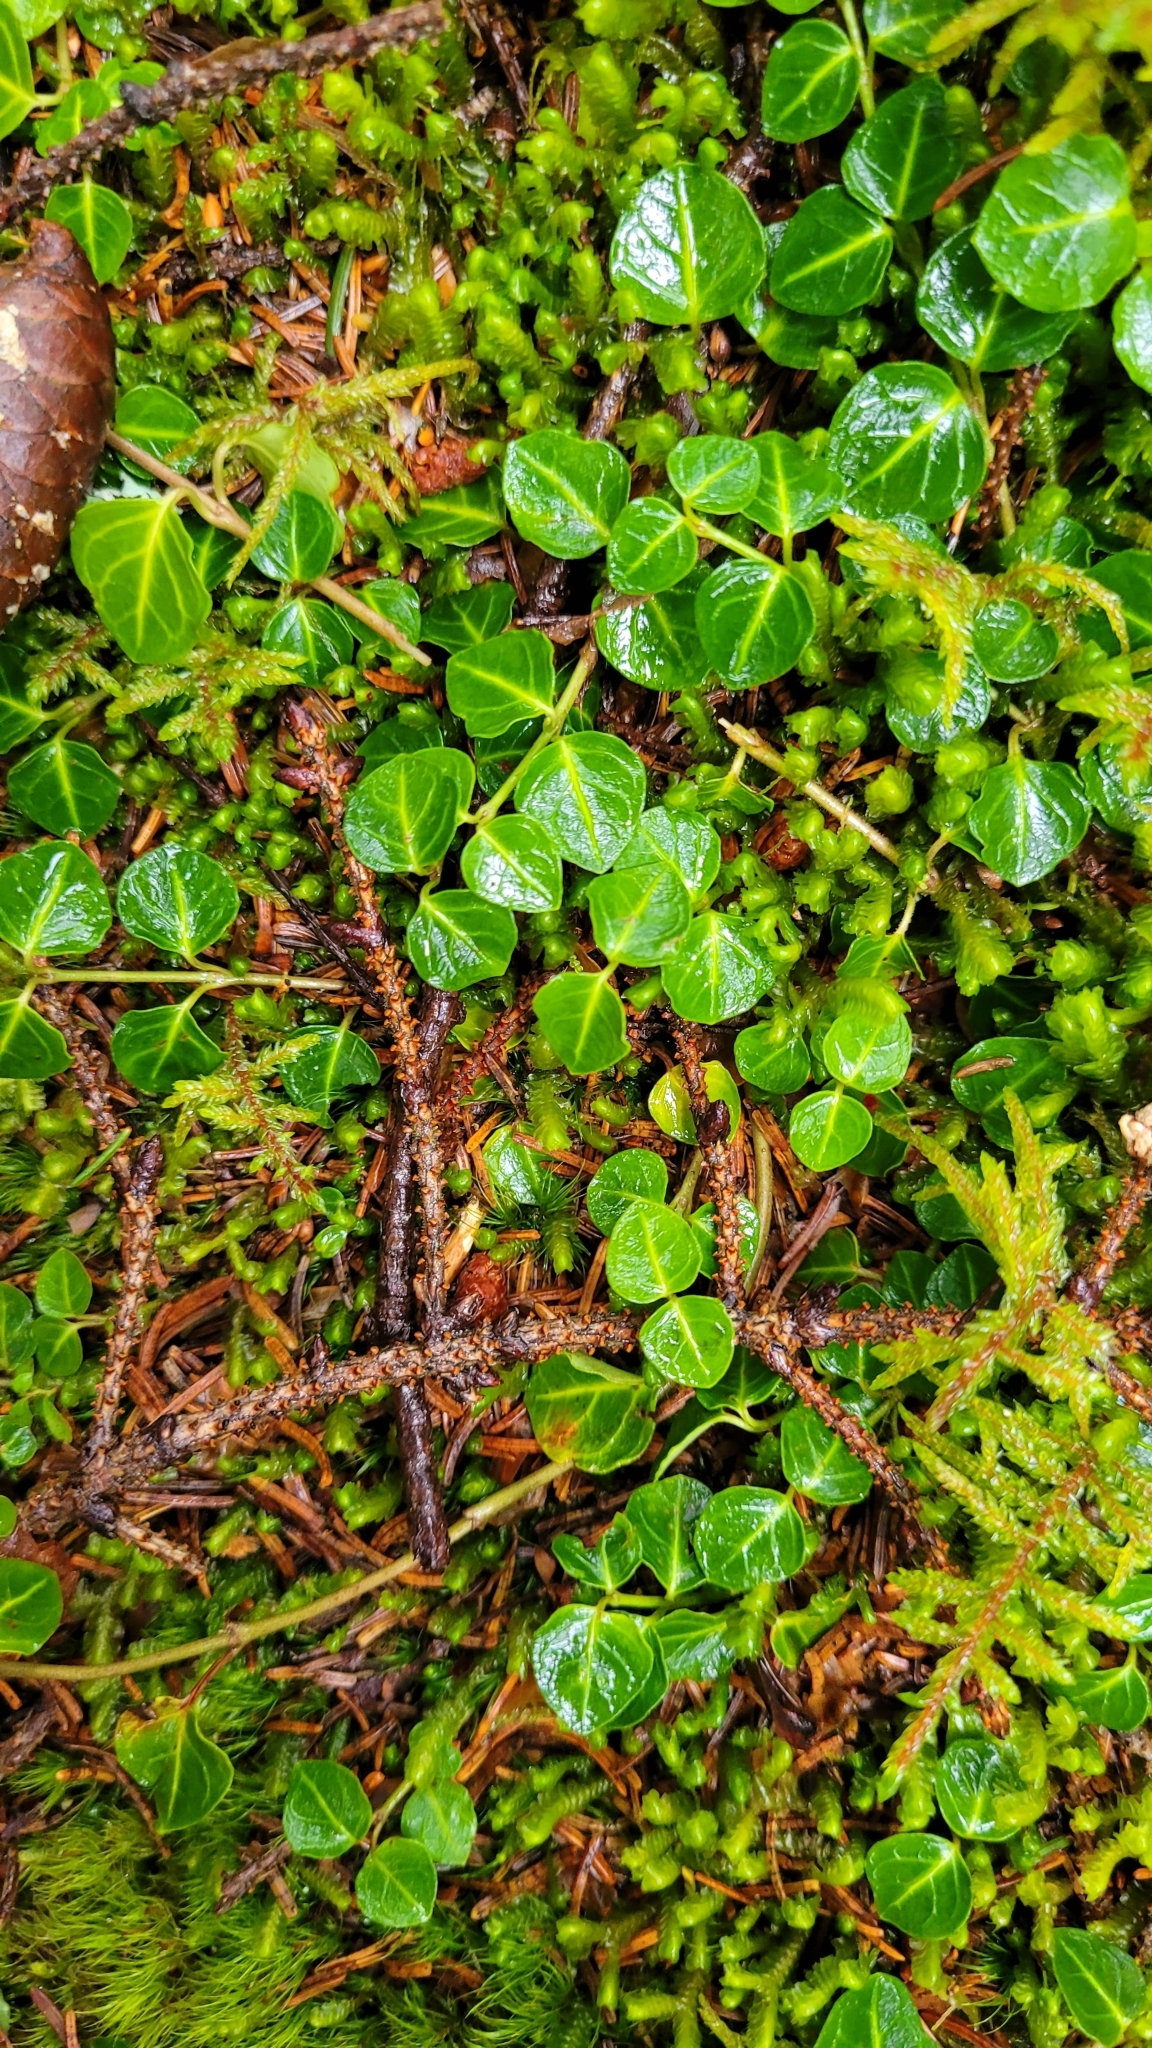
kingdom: Plantae
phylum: Tracheophyta
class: Magnoliopsida
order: Gentianales
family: Rubiaceae
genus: Mitchella
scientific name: Mitchella repens
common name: Partridge-berry
